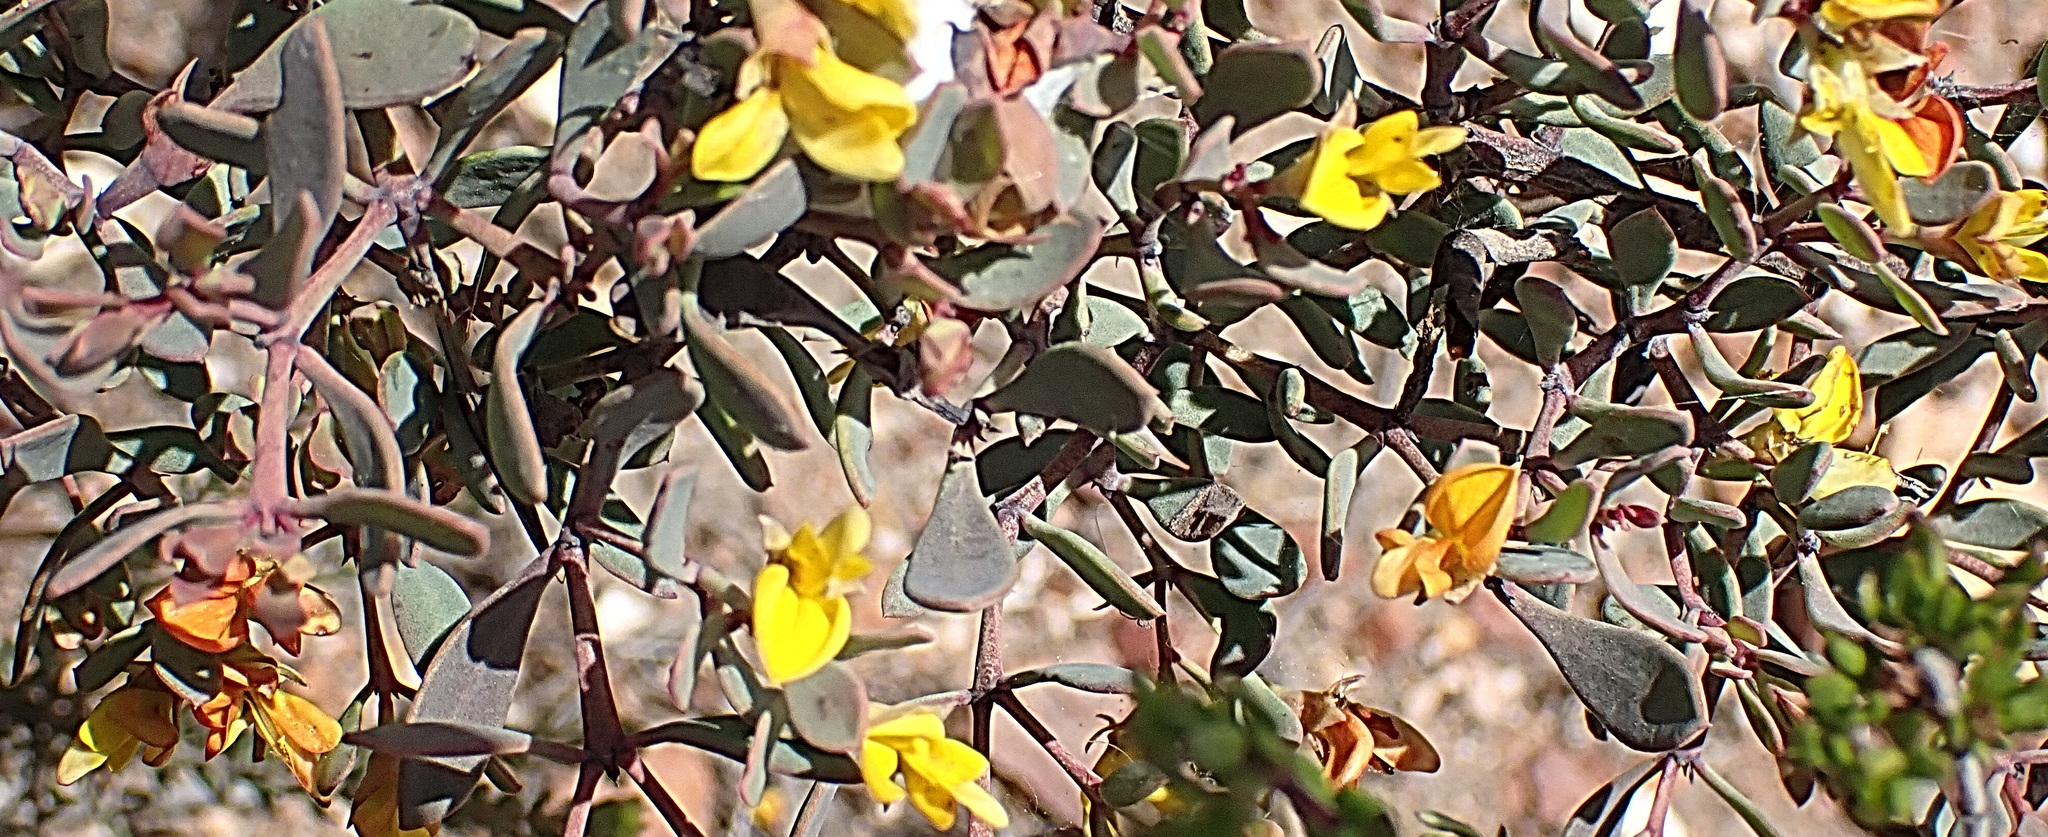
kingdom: Plantae
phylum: Tracheophyta
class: Magnoliopsida
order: Fabales
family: Fabaceae
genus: Rafnia
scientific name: Rafnia capensis
